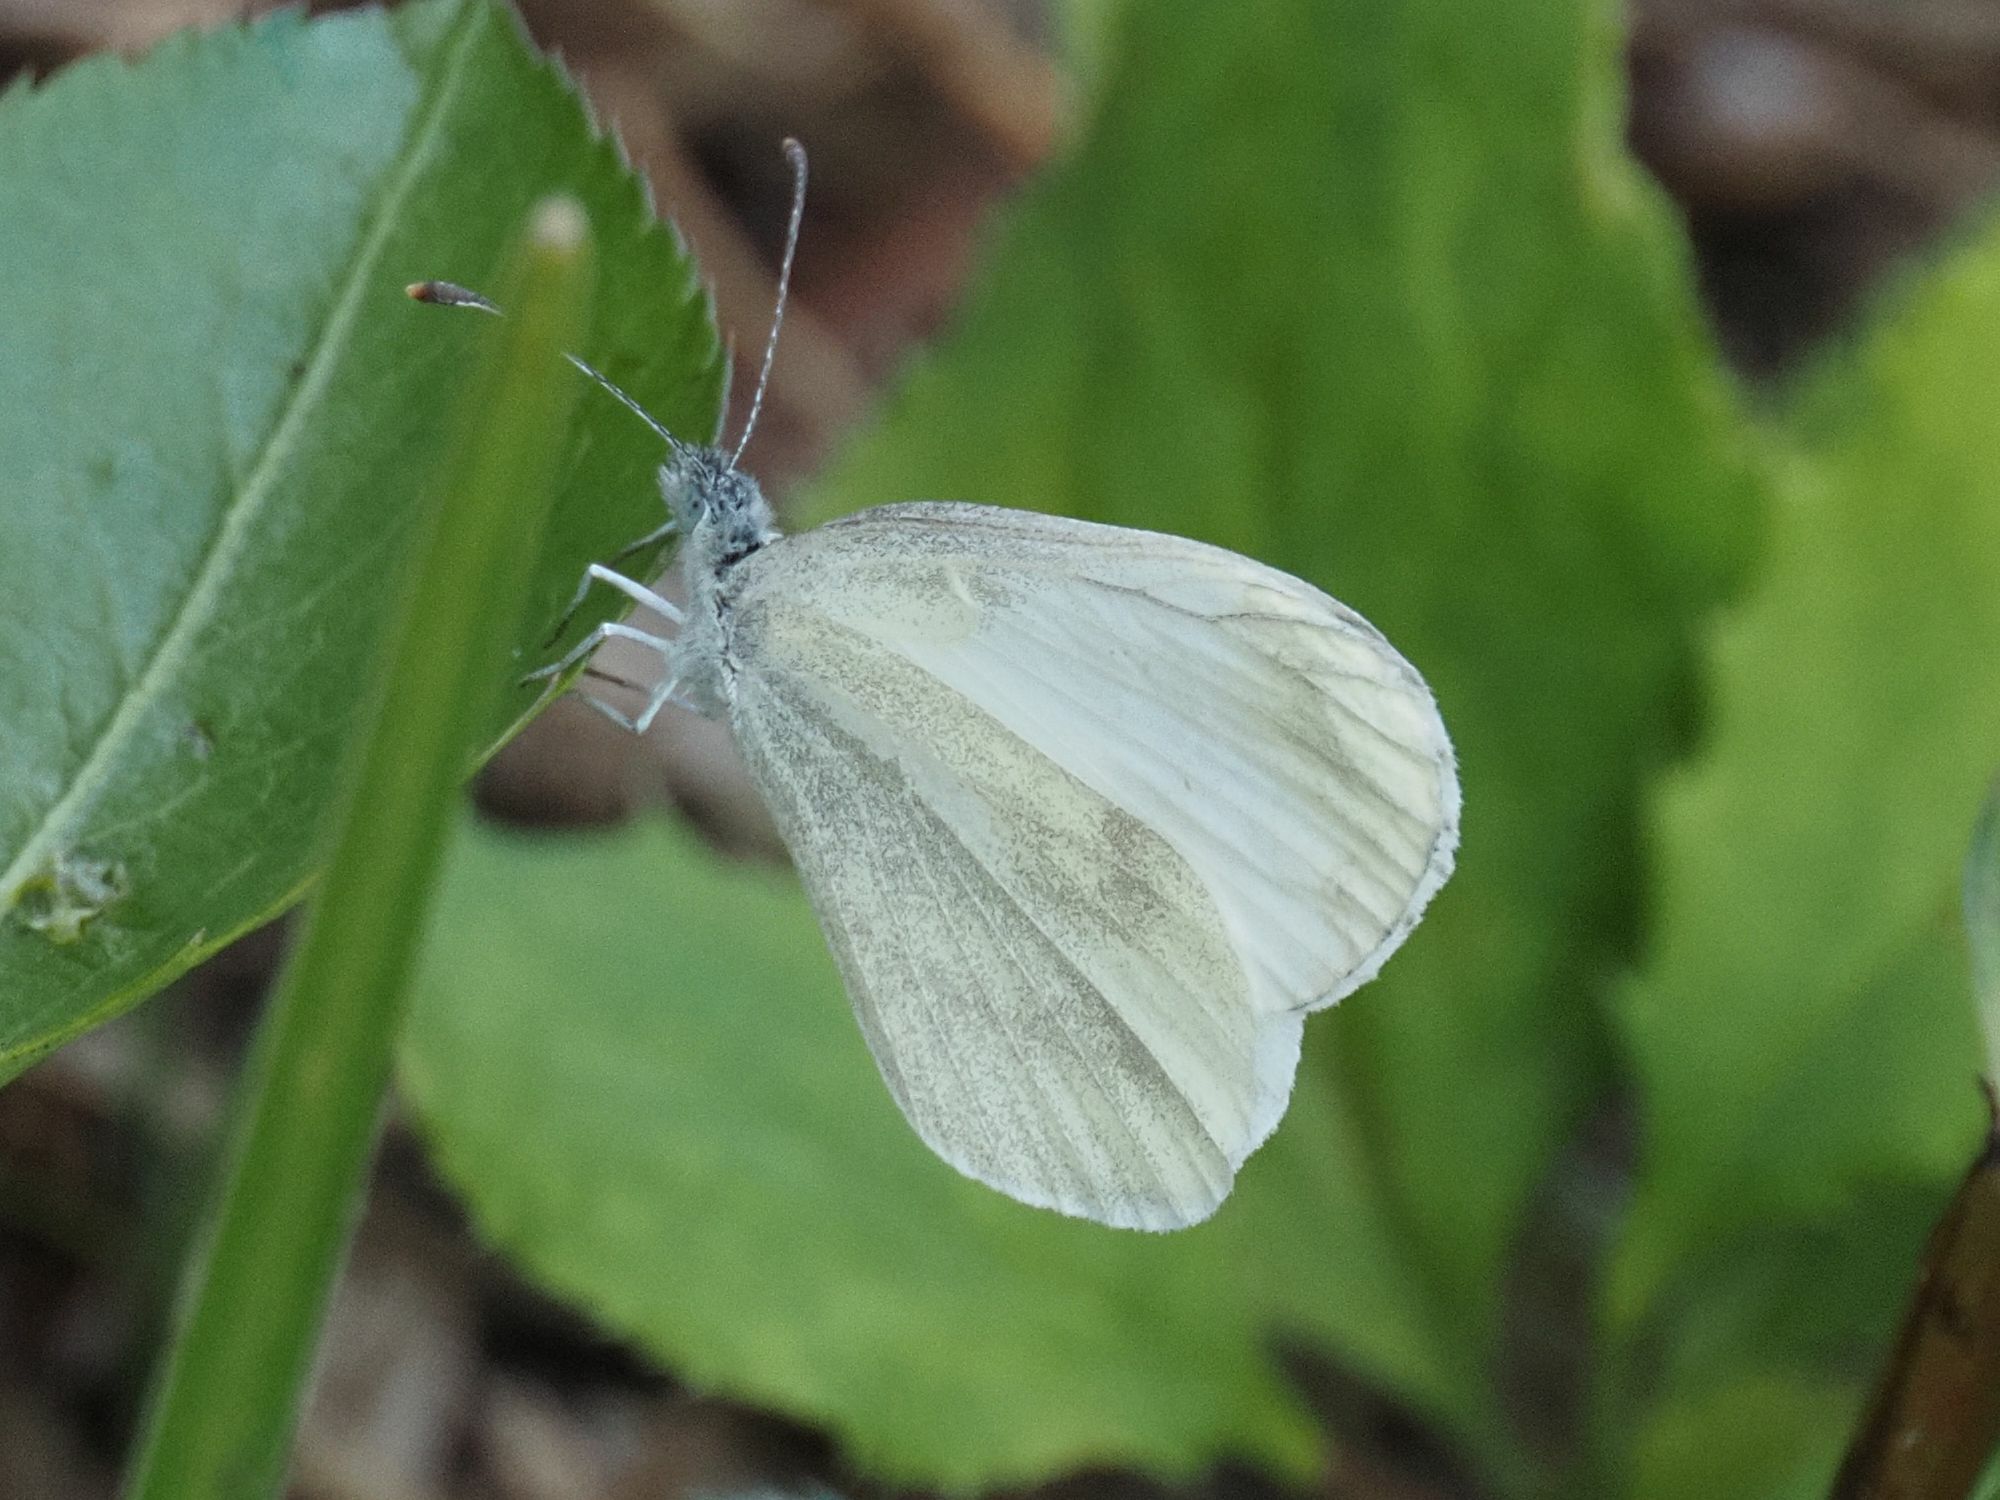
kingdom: Animalia
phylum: Arthropoda
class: Insecta
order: Lepidoptera
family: Pieridae
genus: Leptidea
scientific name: Leptidea
